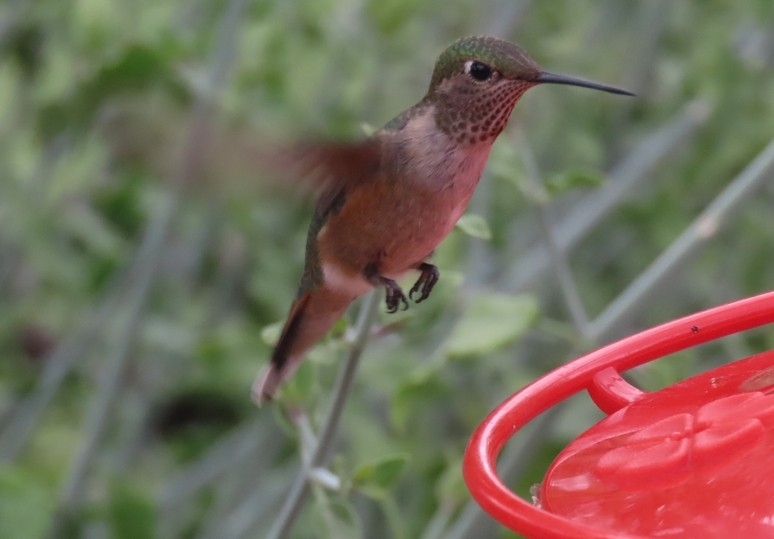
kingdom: Animalia
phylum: Chordata
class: Aves
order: Apodiformes
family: Trochilidae
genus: Selasphorus
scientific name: Selasphorus platycercus
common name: Broad-tailed hummingbird
